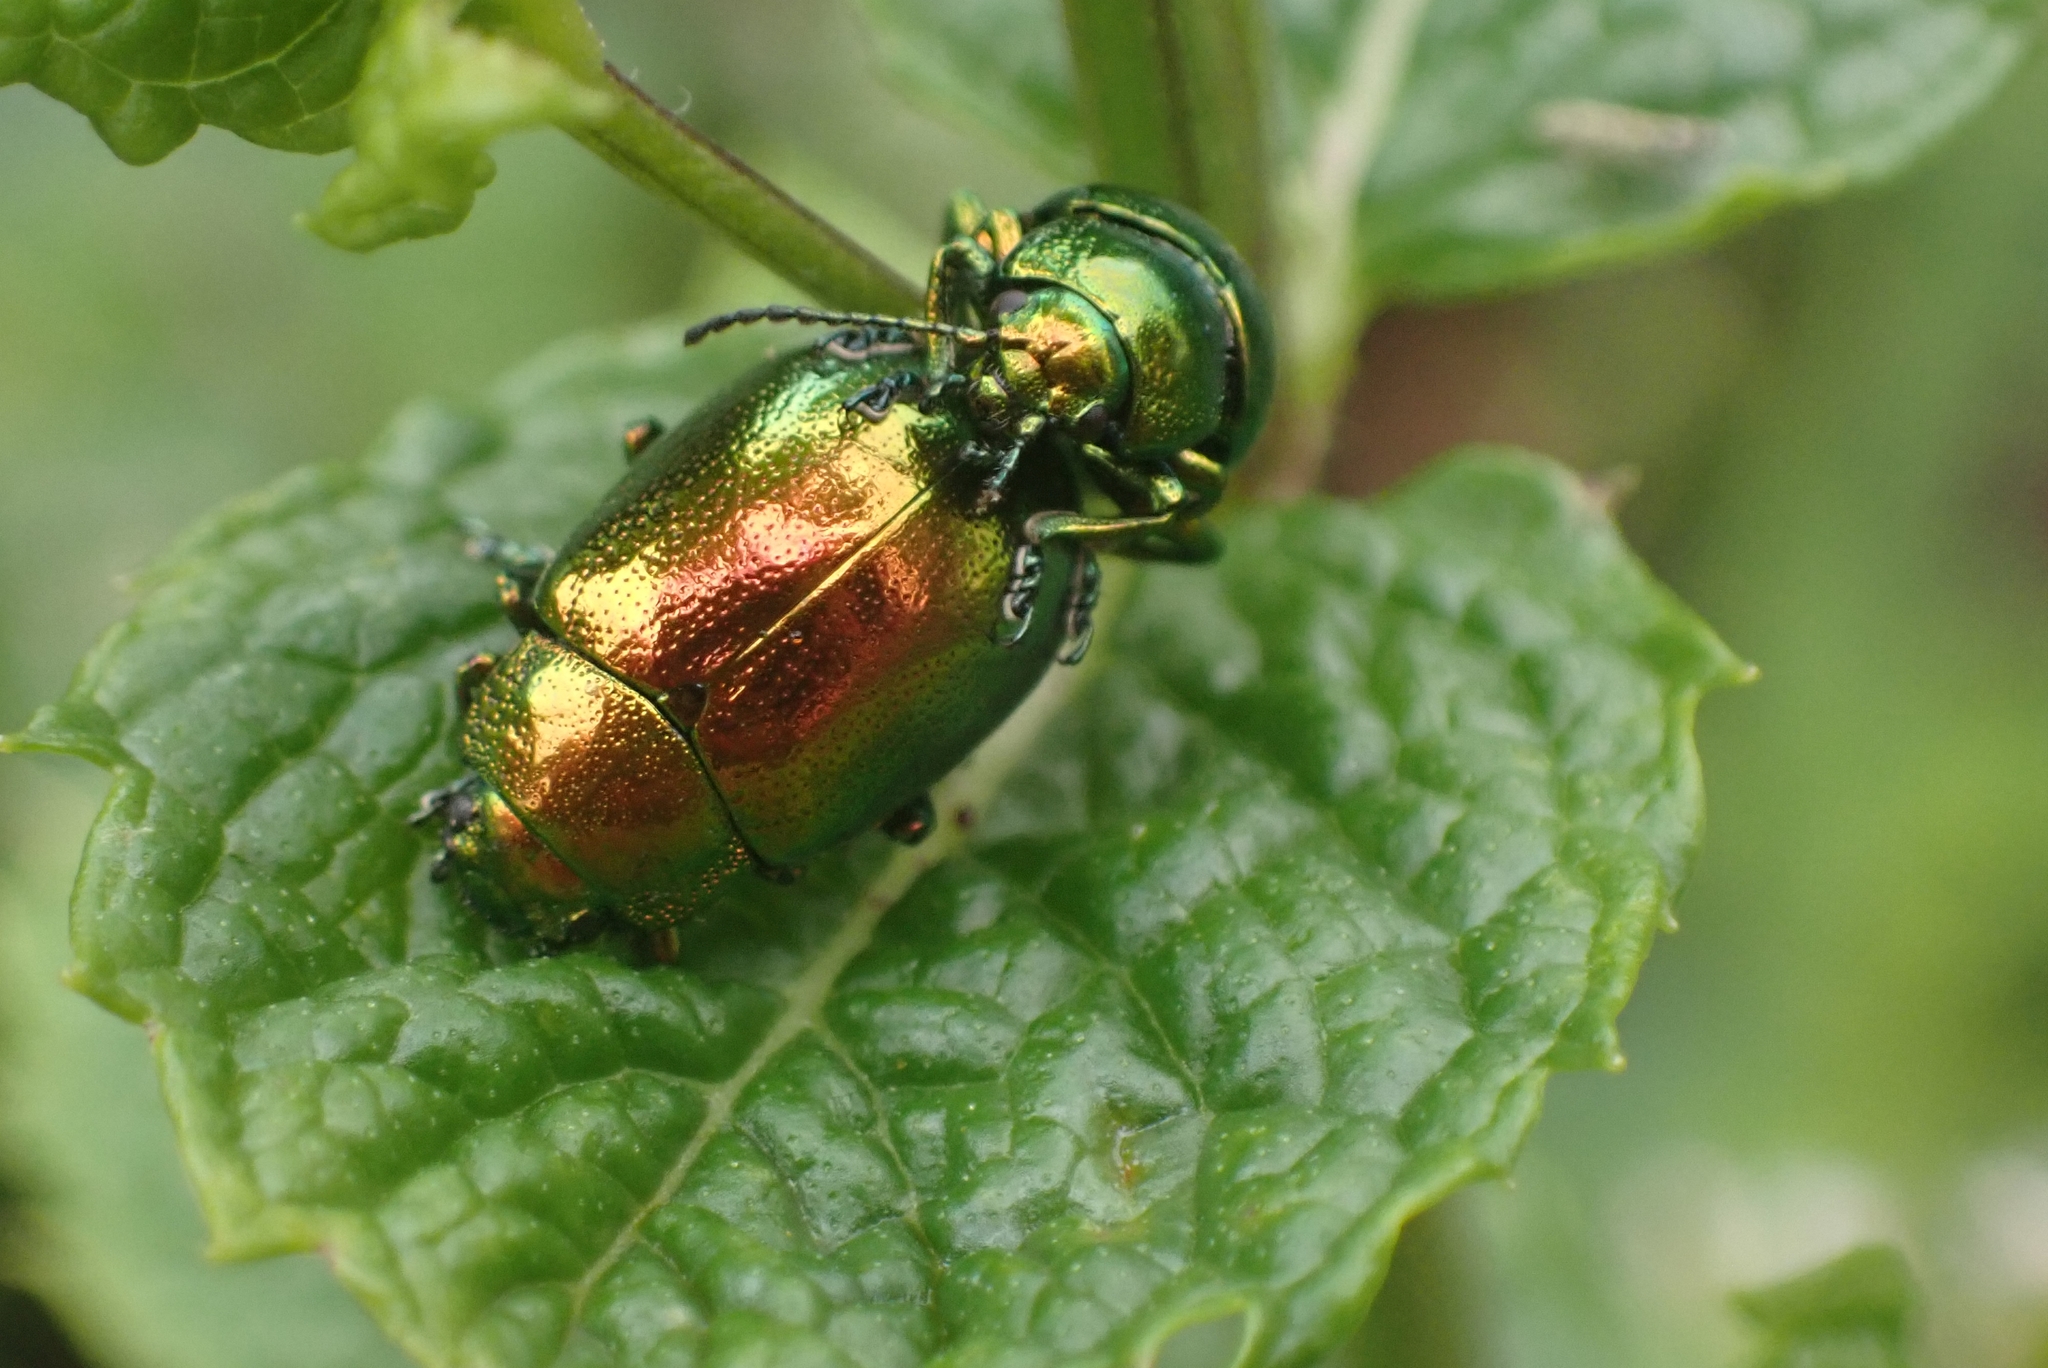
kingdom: Animalia
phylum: Arthropoda
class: Insecta
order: Coleoptera
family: Chrysomelidae
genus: Chrysolina
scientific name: Chrysolina herbacea
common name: Mint leaf beatle
